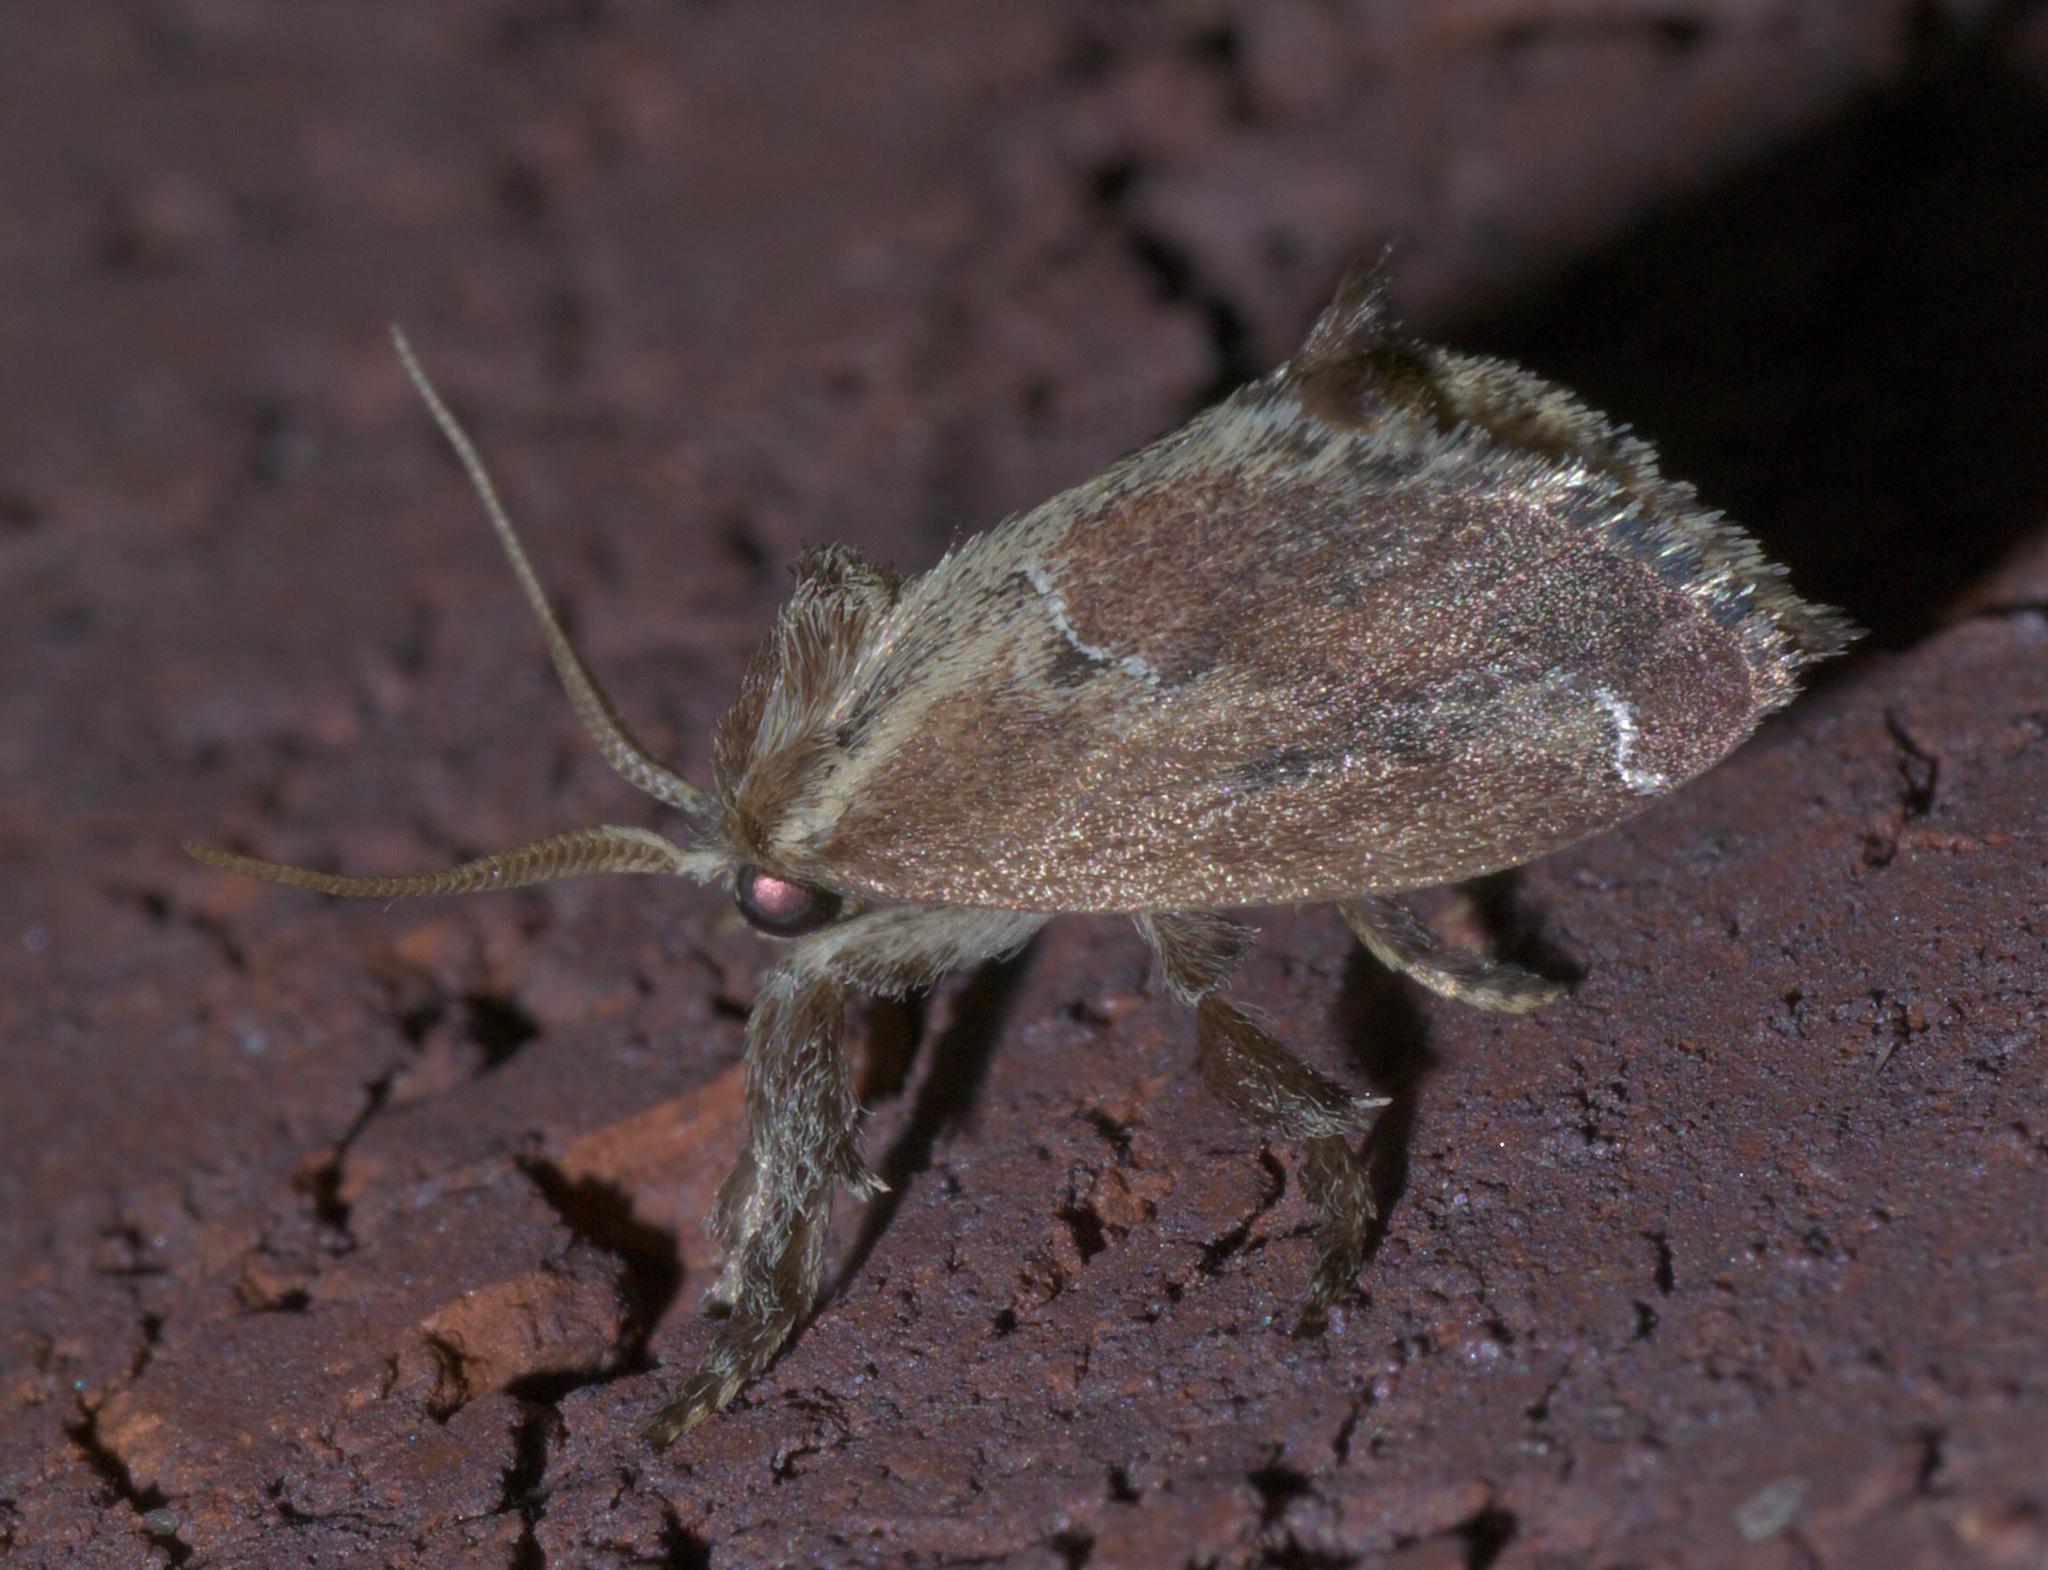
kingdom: Animalia
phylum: Arthropoda
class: Insecta
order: Lepidoptera
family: Limacodidae
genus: Adoneta
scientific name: Adoneta spinuloides
